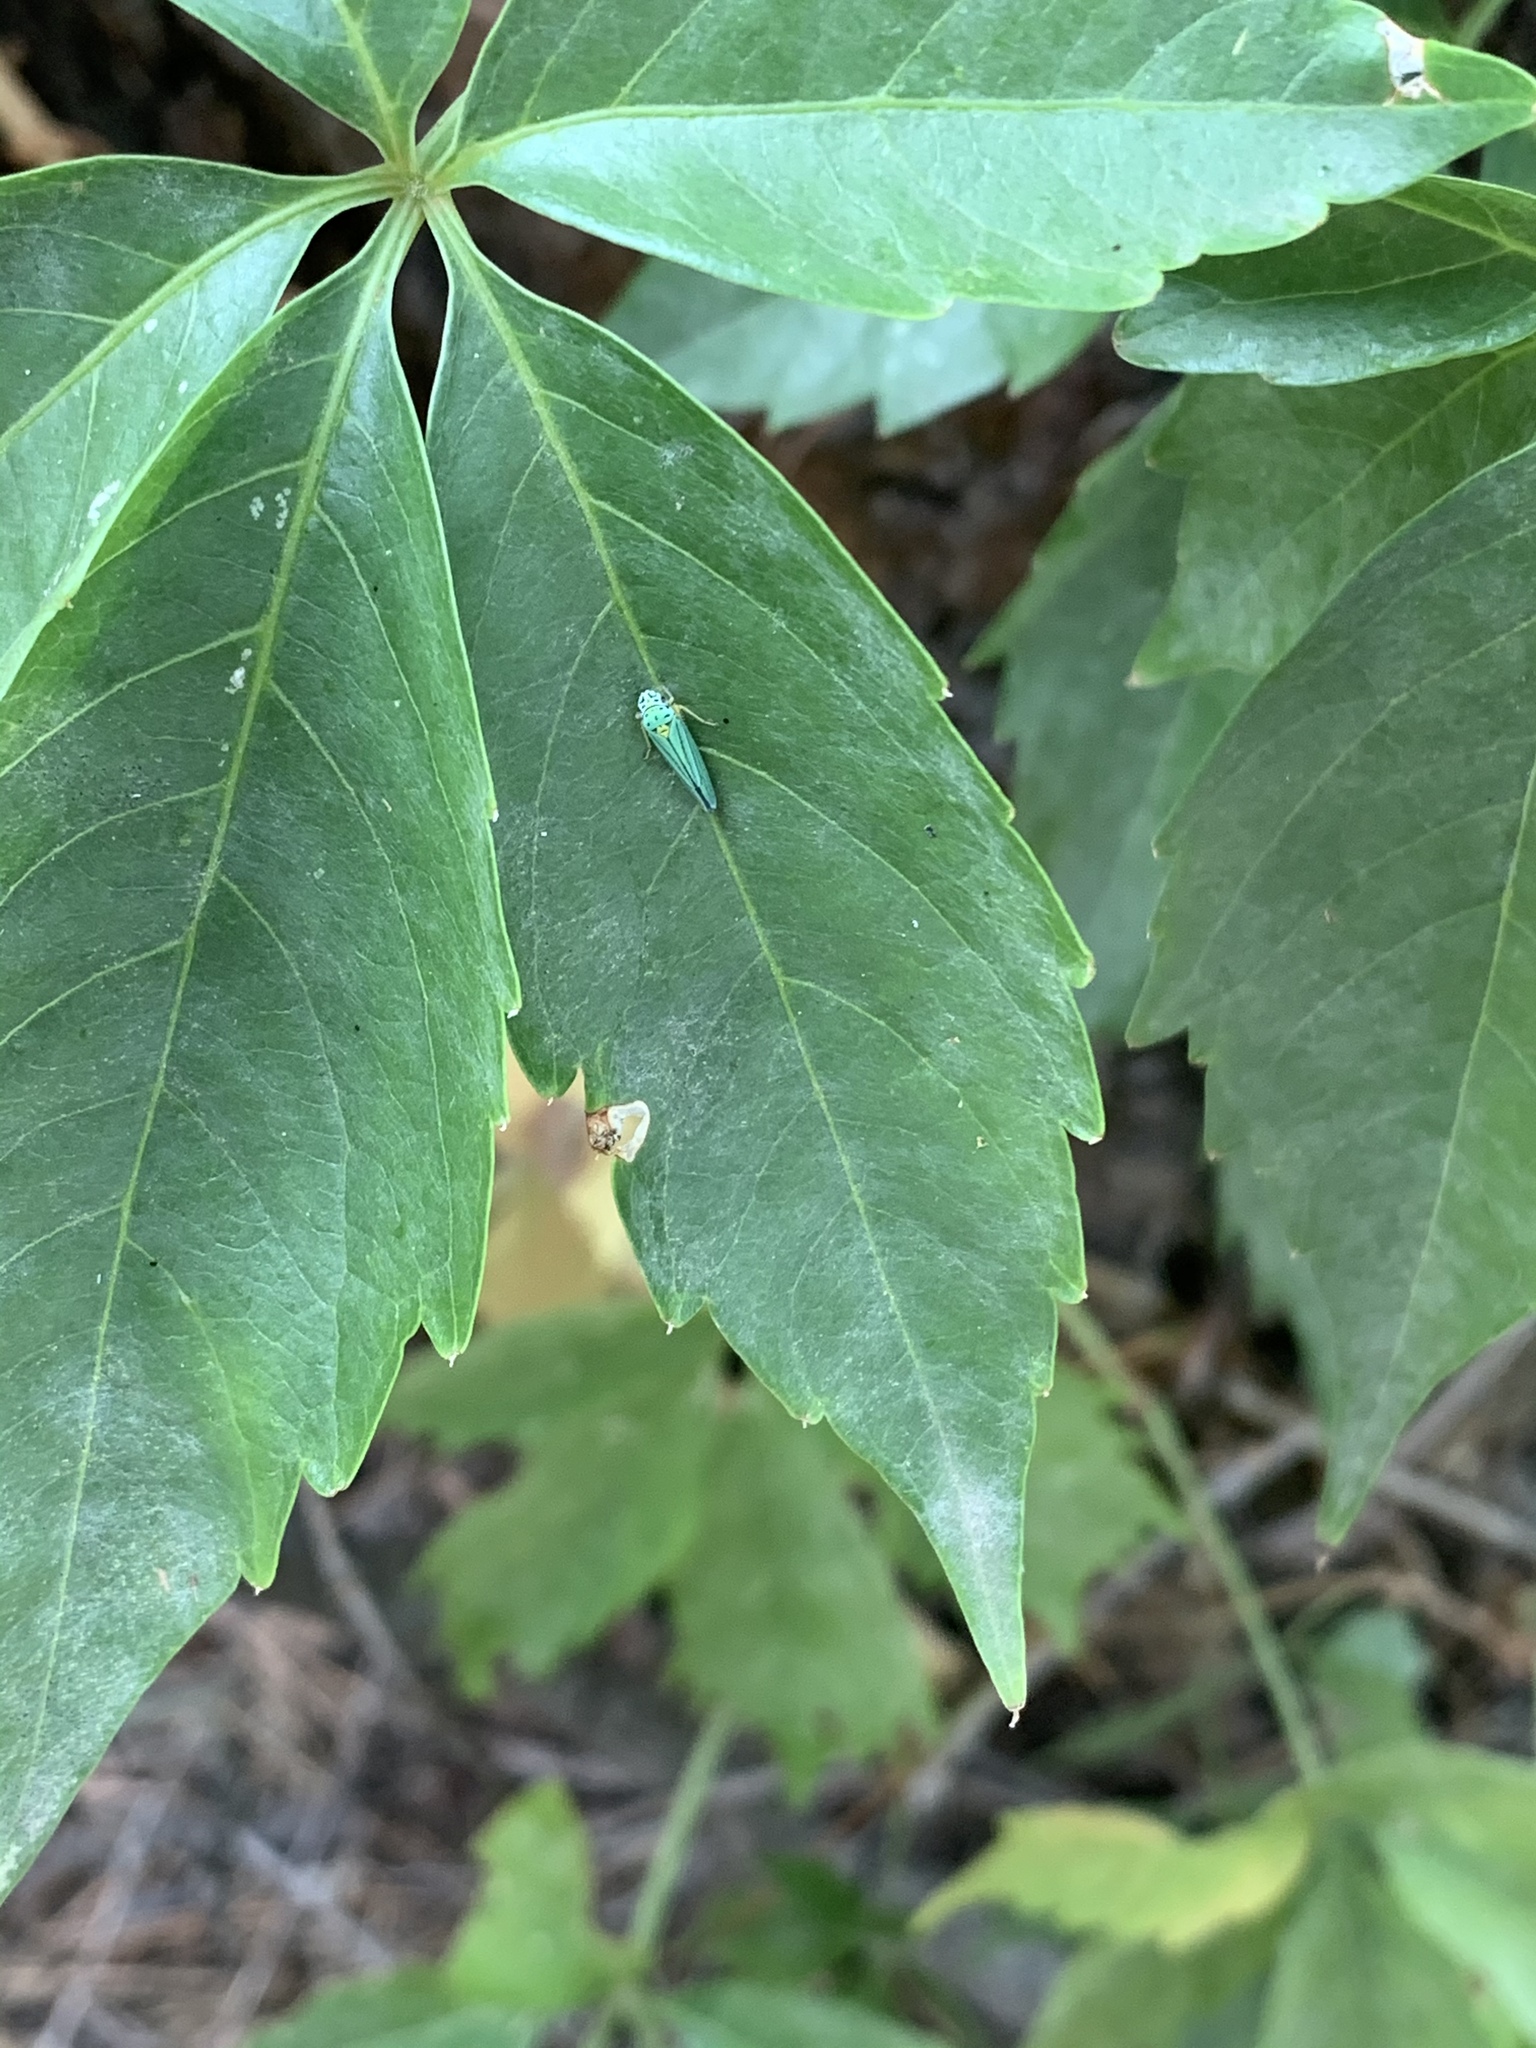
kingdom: Animalia
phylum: Arthropoda
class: Insecta
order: Hemiptera
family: Cicadellidae
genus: Graphocephala
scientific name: Graphocephala atropunctata
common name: Blue-green sharpshooter
